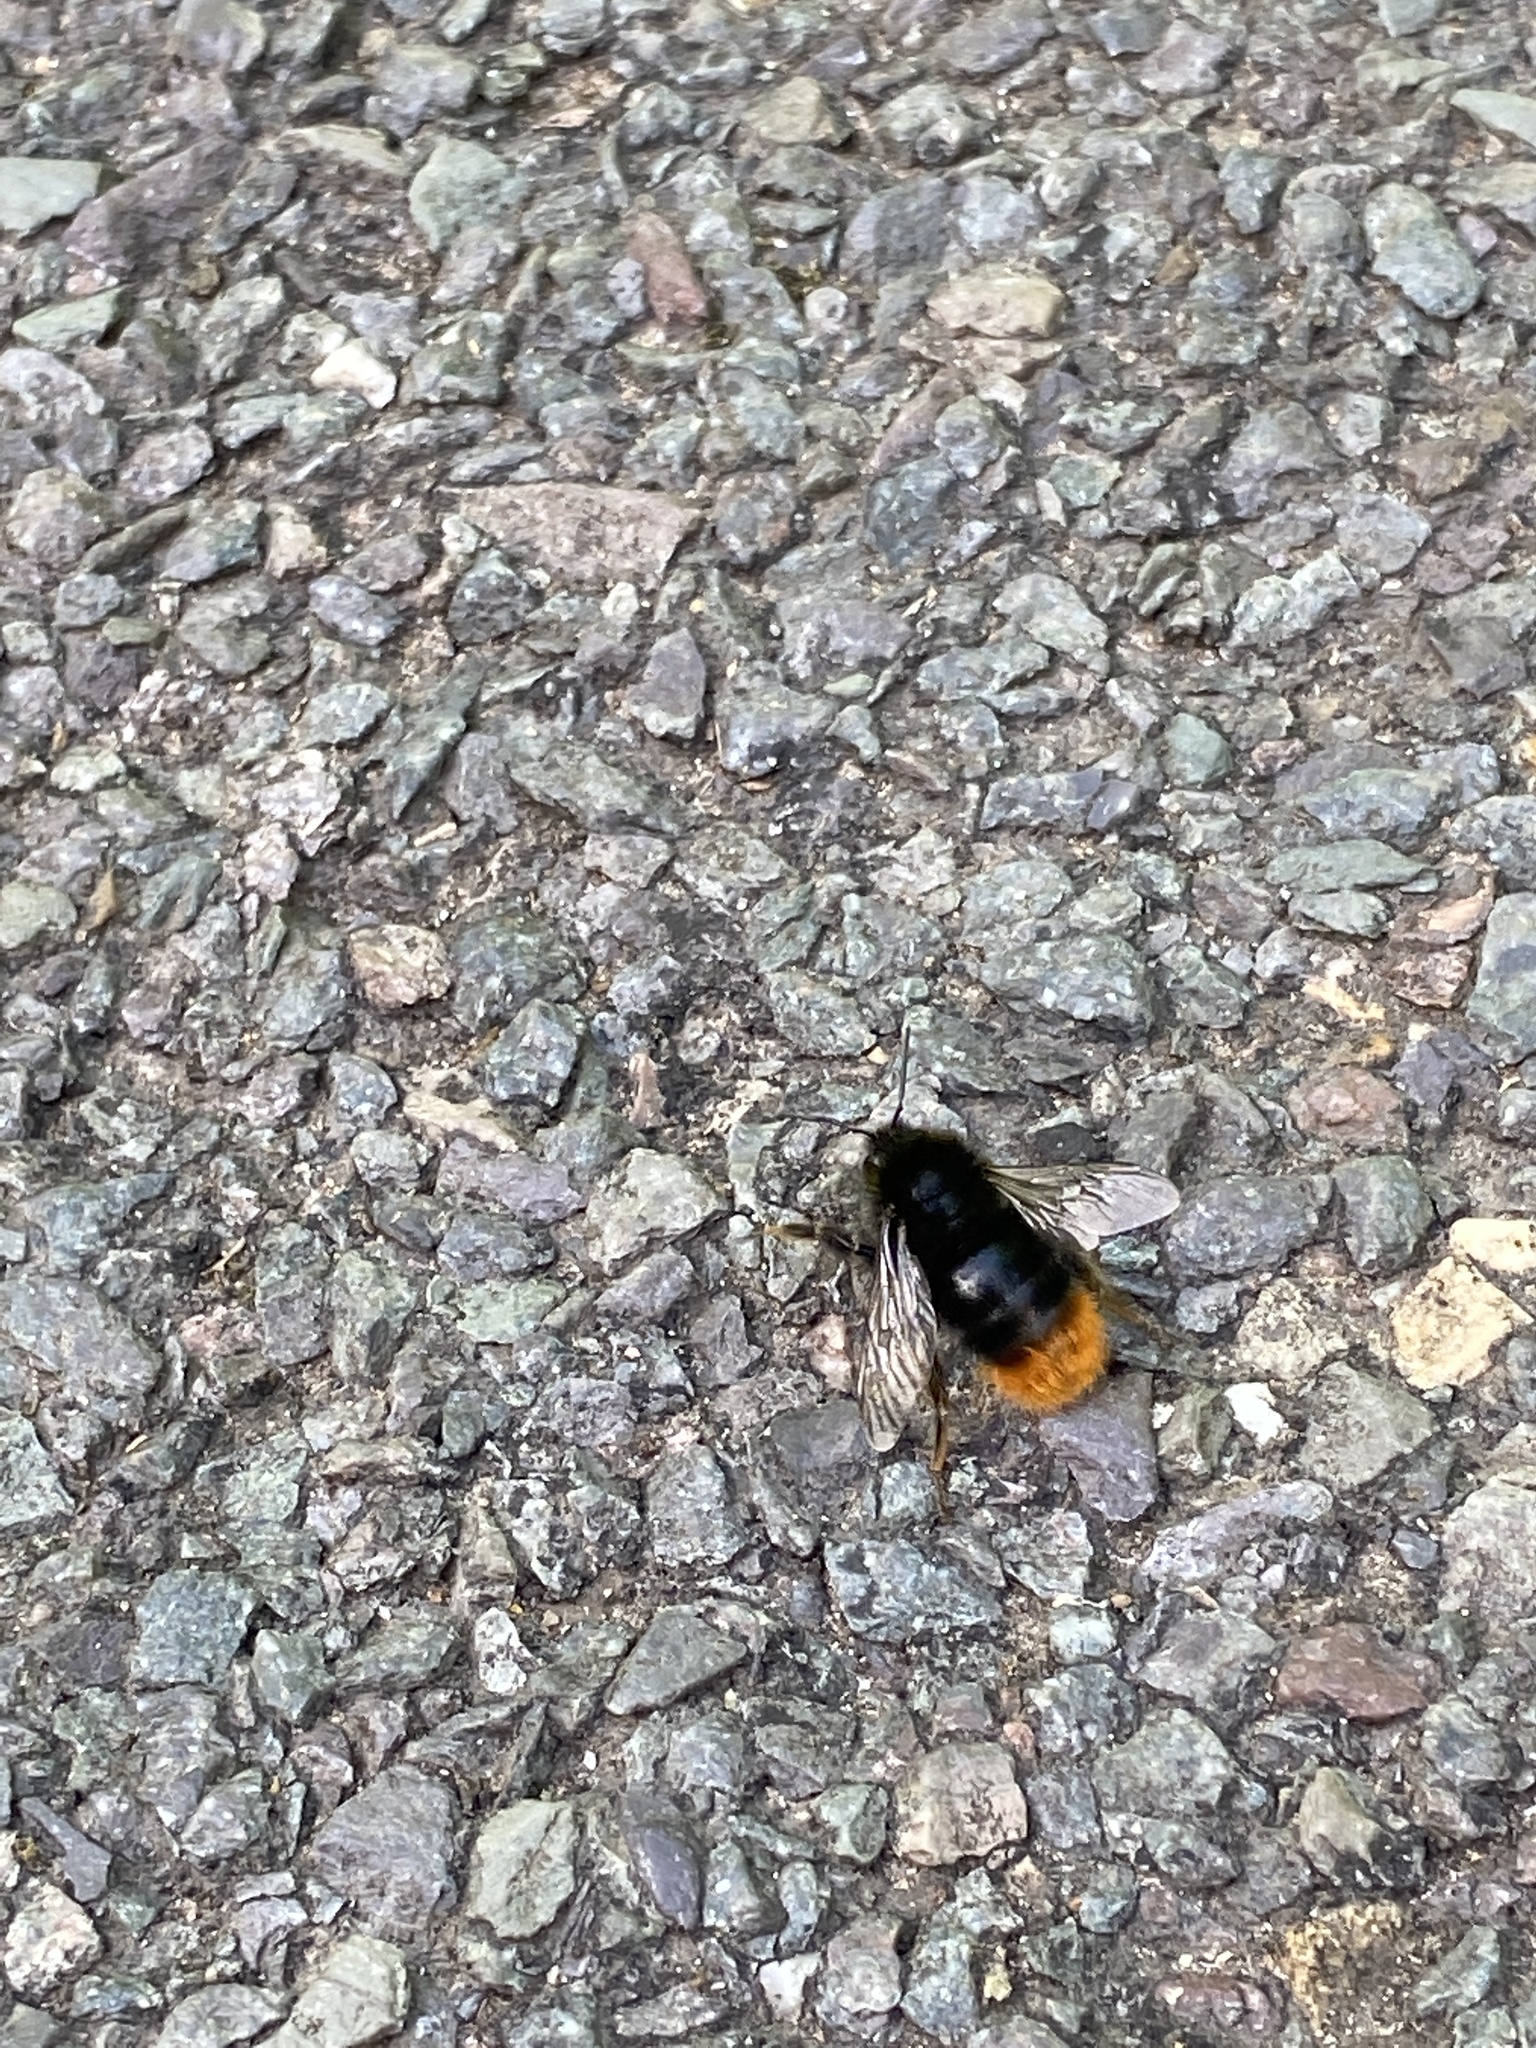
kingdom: Animalia
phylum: Arthropoda
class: Insecta
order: Hymenoptera
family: Apidae
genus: Bombus
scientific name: Bombus lapidarius
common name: Large red-tailed humble-bee
